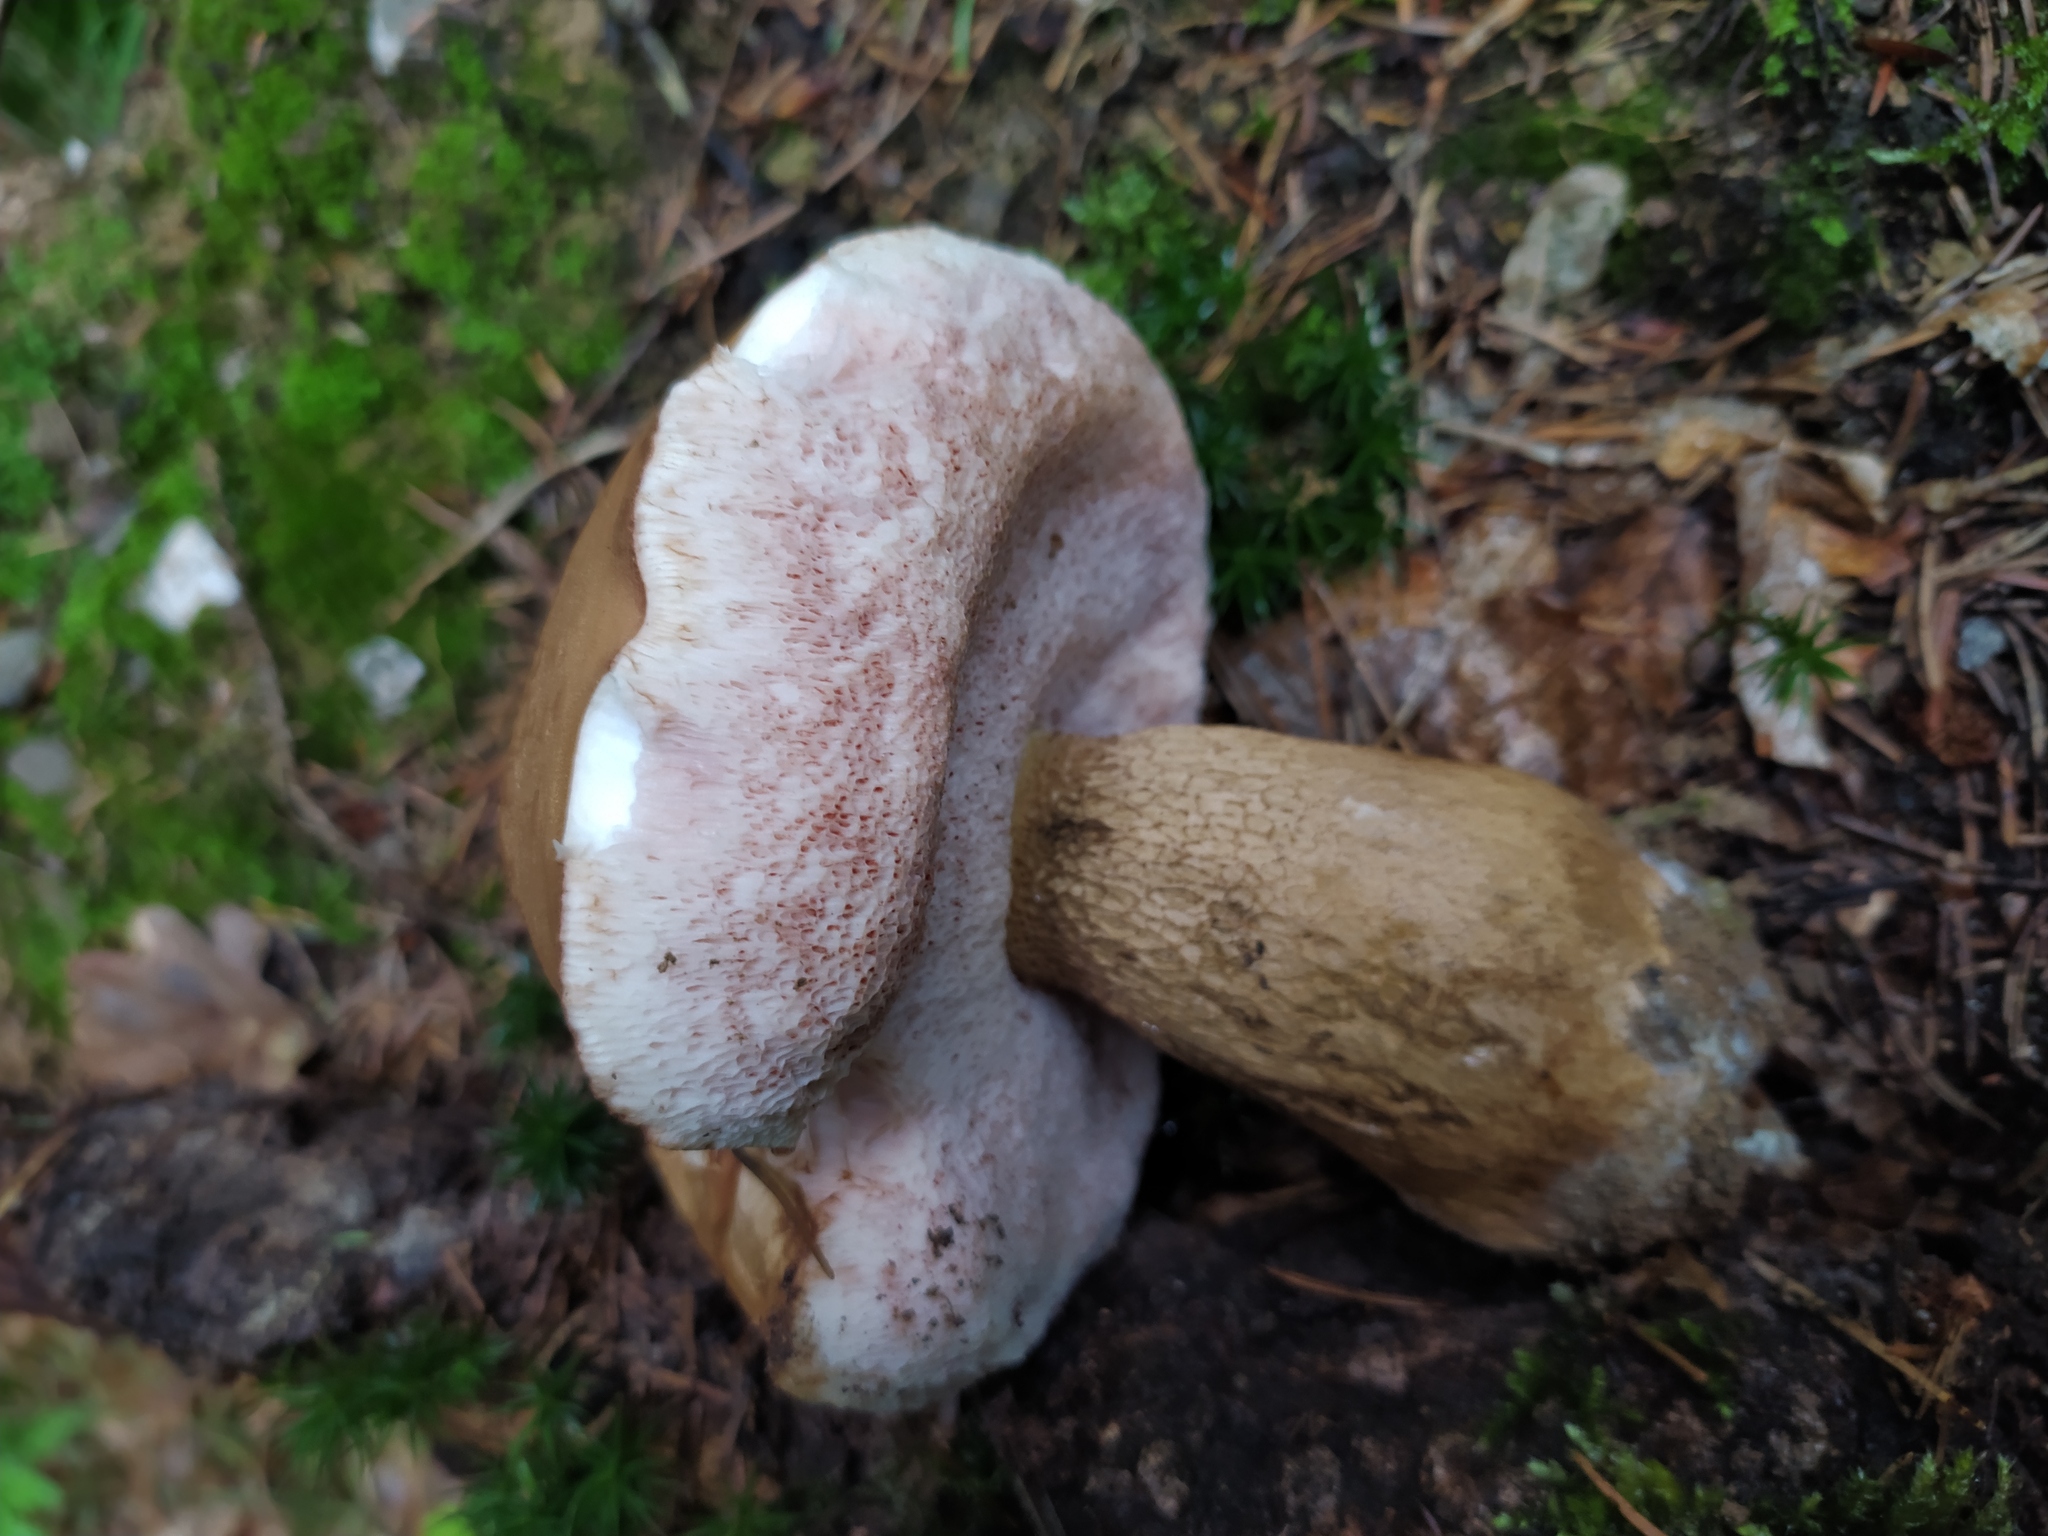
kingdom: Fungi
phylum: Basidiomycota
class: Agaricomycetes
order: Boletales
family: Boletaceae
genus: Tylopilus
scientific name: Tylopilus felleus
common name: Bitter bolete
